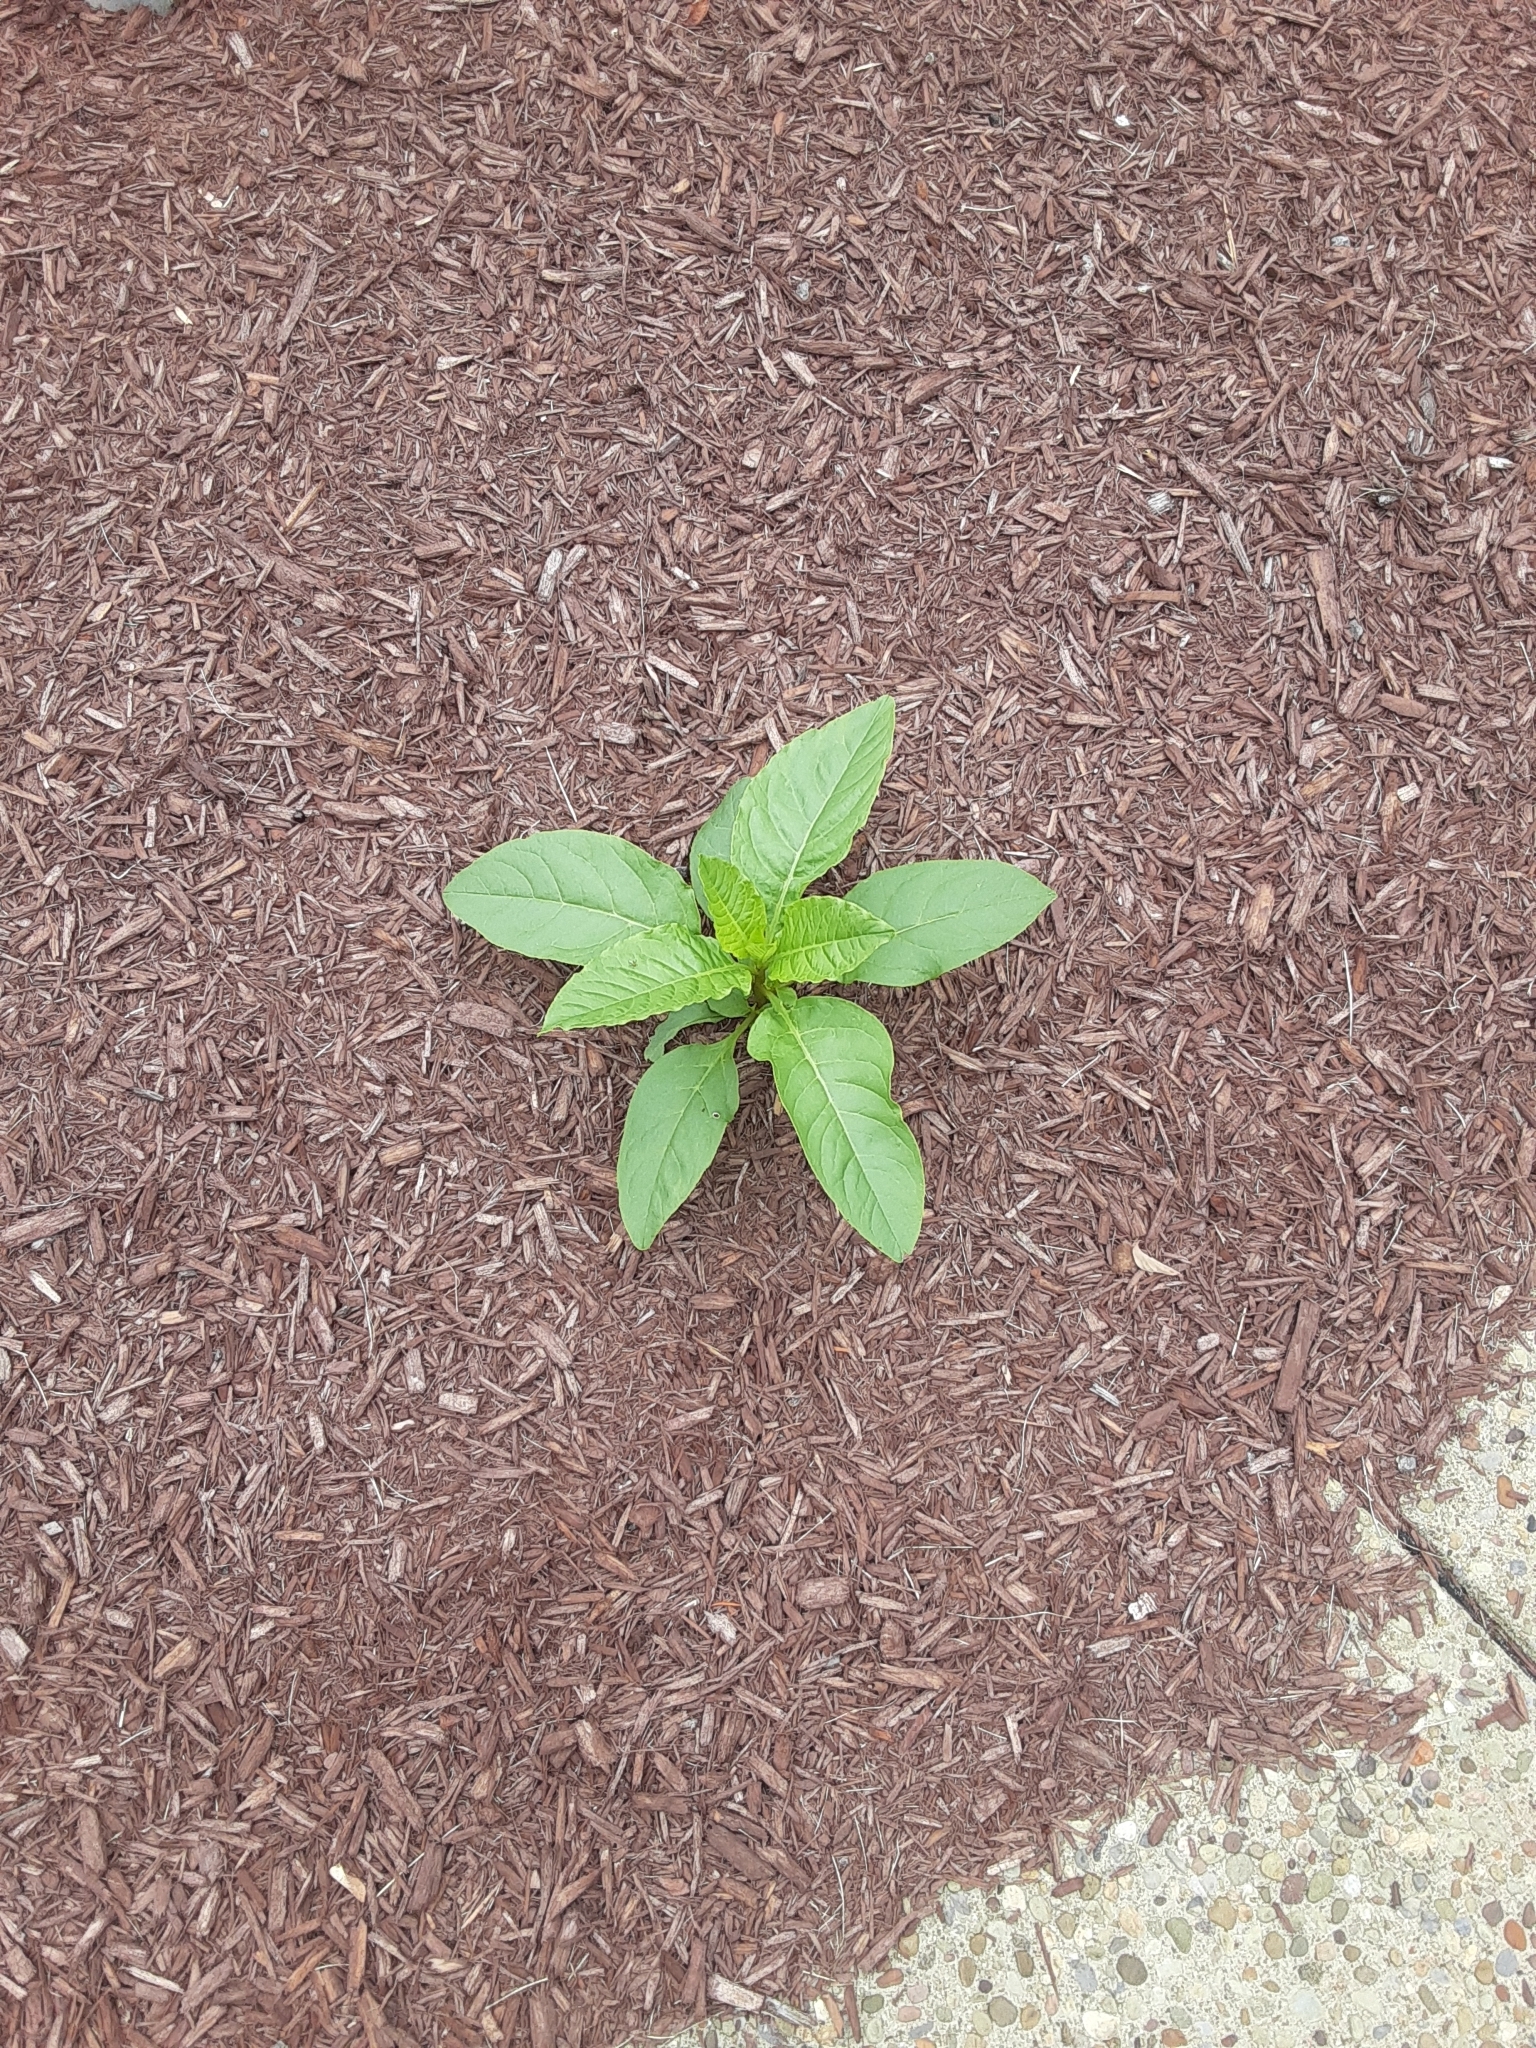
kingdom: Plantae
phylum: Tracheophyta
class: Magnoliopsida
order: Caryophyllales
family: Phytolaccaceae
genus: Phytolacca
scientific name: Phytolacca americana
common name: American pokeweed
